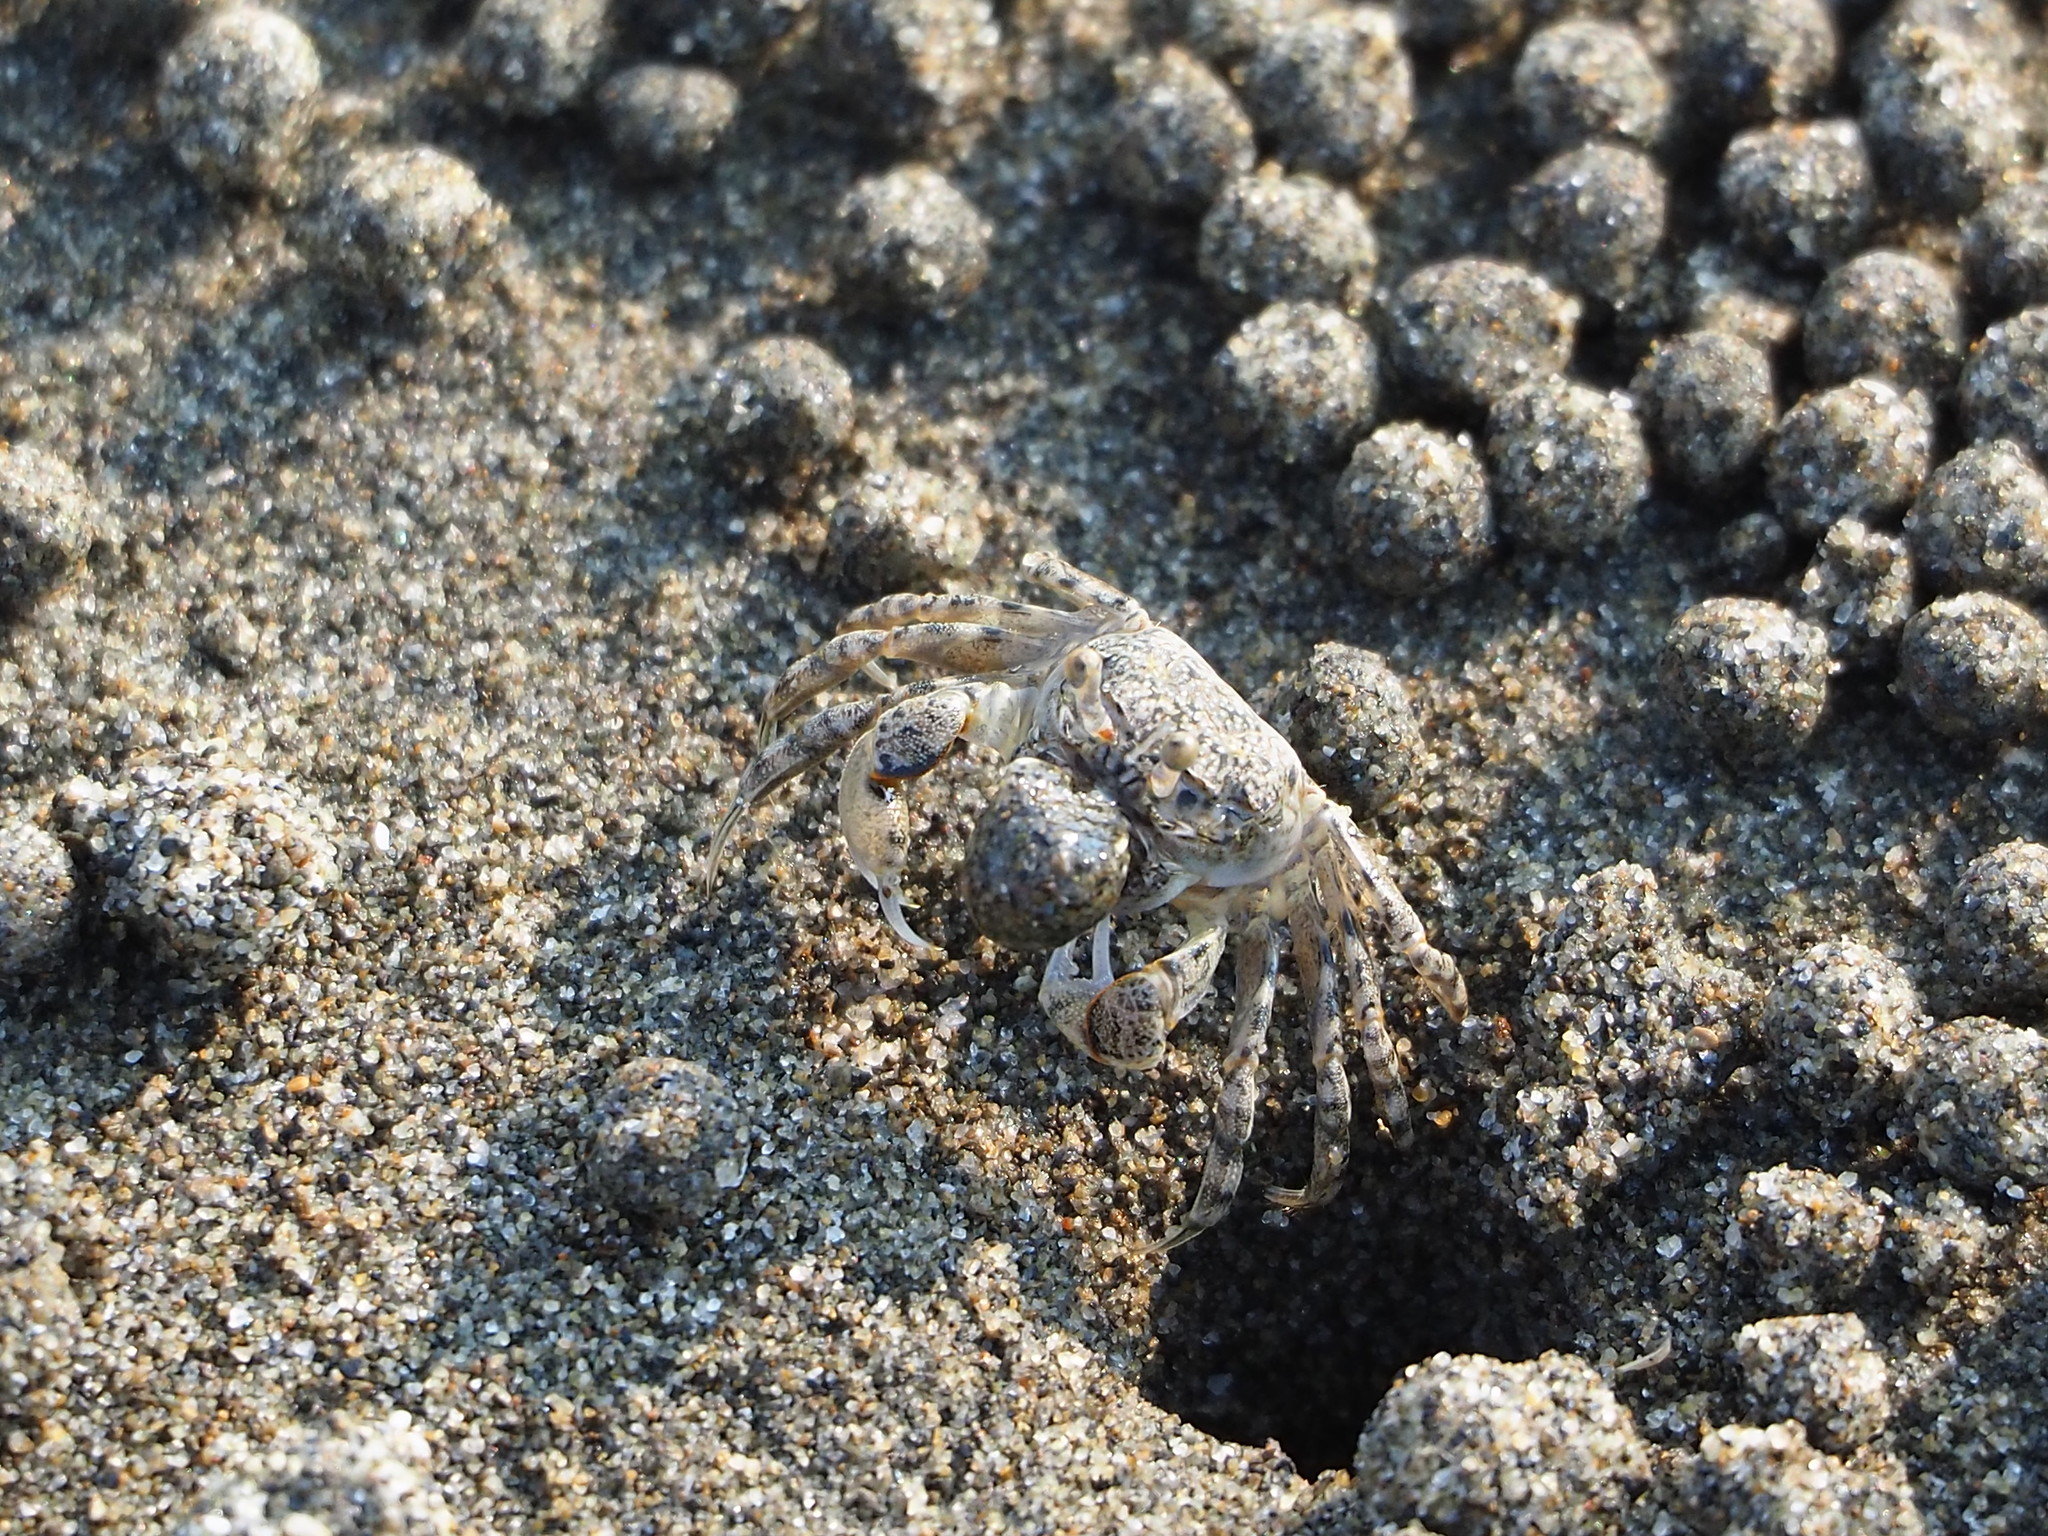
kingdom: Animalia
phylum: Arthropoda
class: Malacostraca
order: Decapoda
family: Dotillidae
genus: Scopimera
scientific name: Scopimera bitympana
